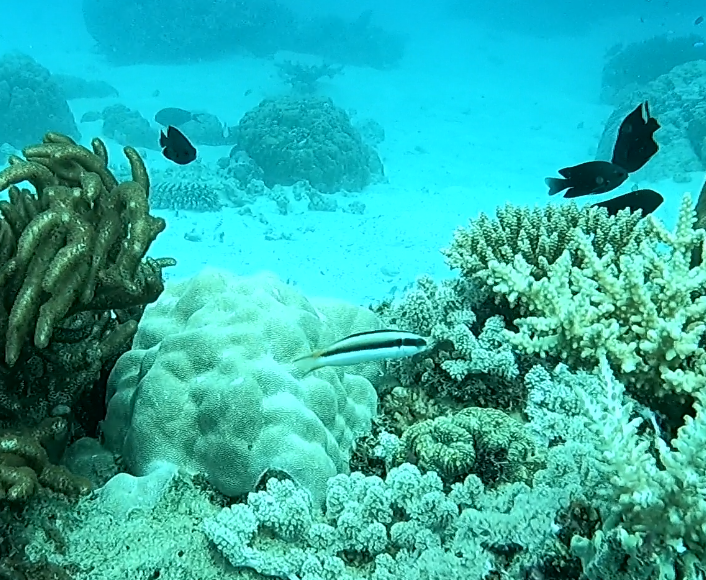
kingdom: Animalia
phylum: Chordata
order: Perciformes
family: Labridae
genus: Thalassoma
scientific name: Thalassoma amblycephalum
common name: Bluehead wrasse
